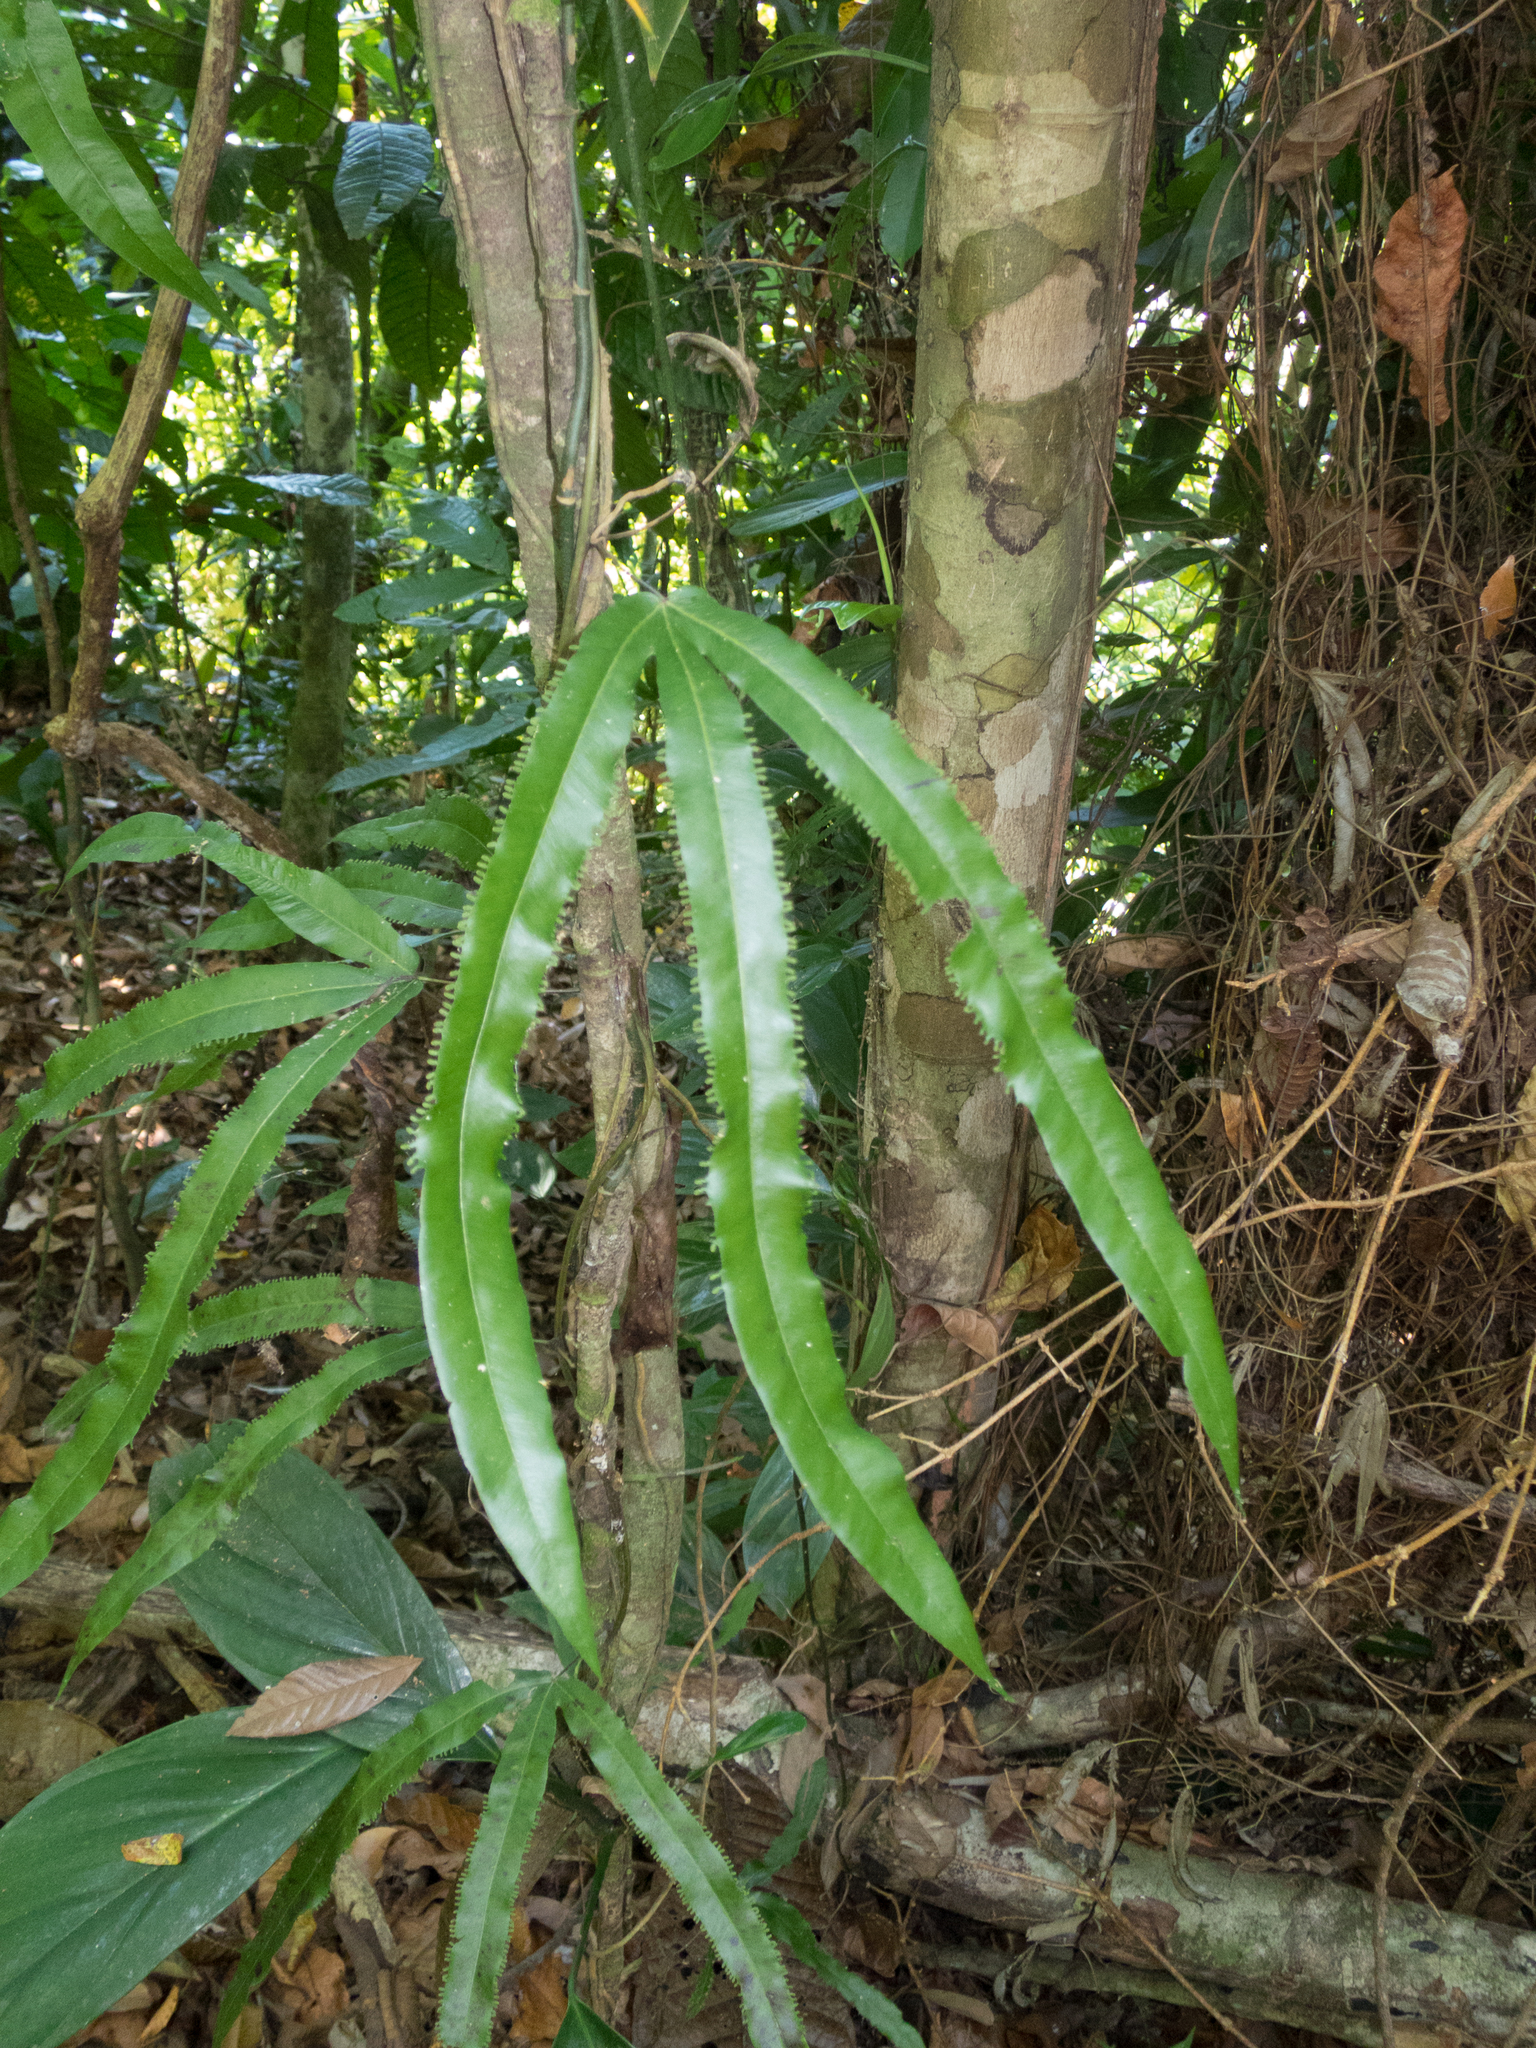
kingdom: Plantae
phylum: Tracheophyta
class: Polypodiopsida
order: Schizaeales
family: Lygodiaceae
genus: Lygodium
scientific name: Lygodium radiatum
